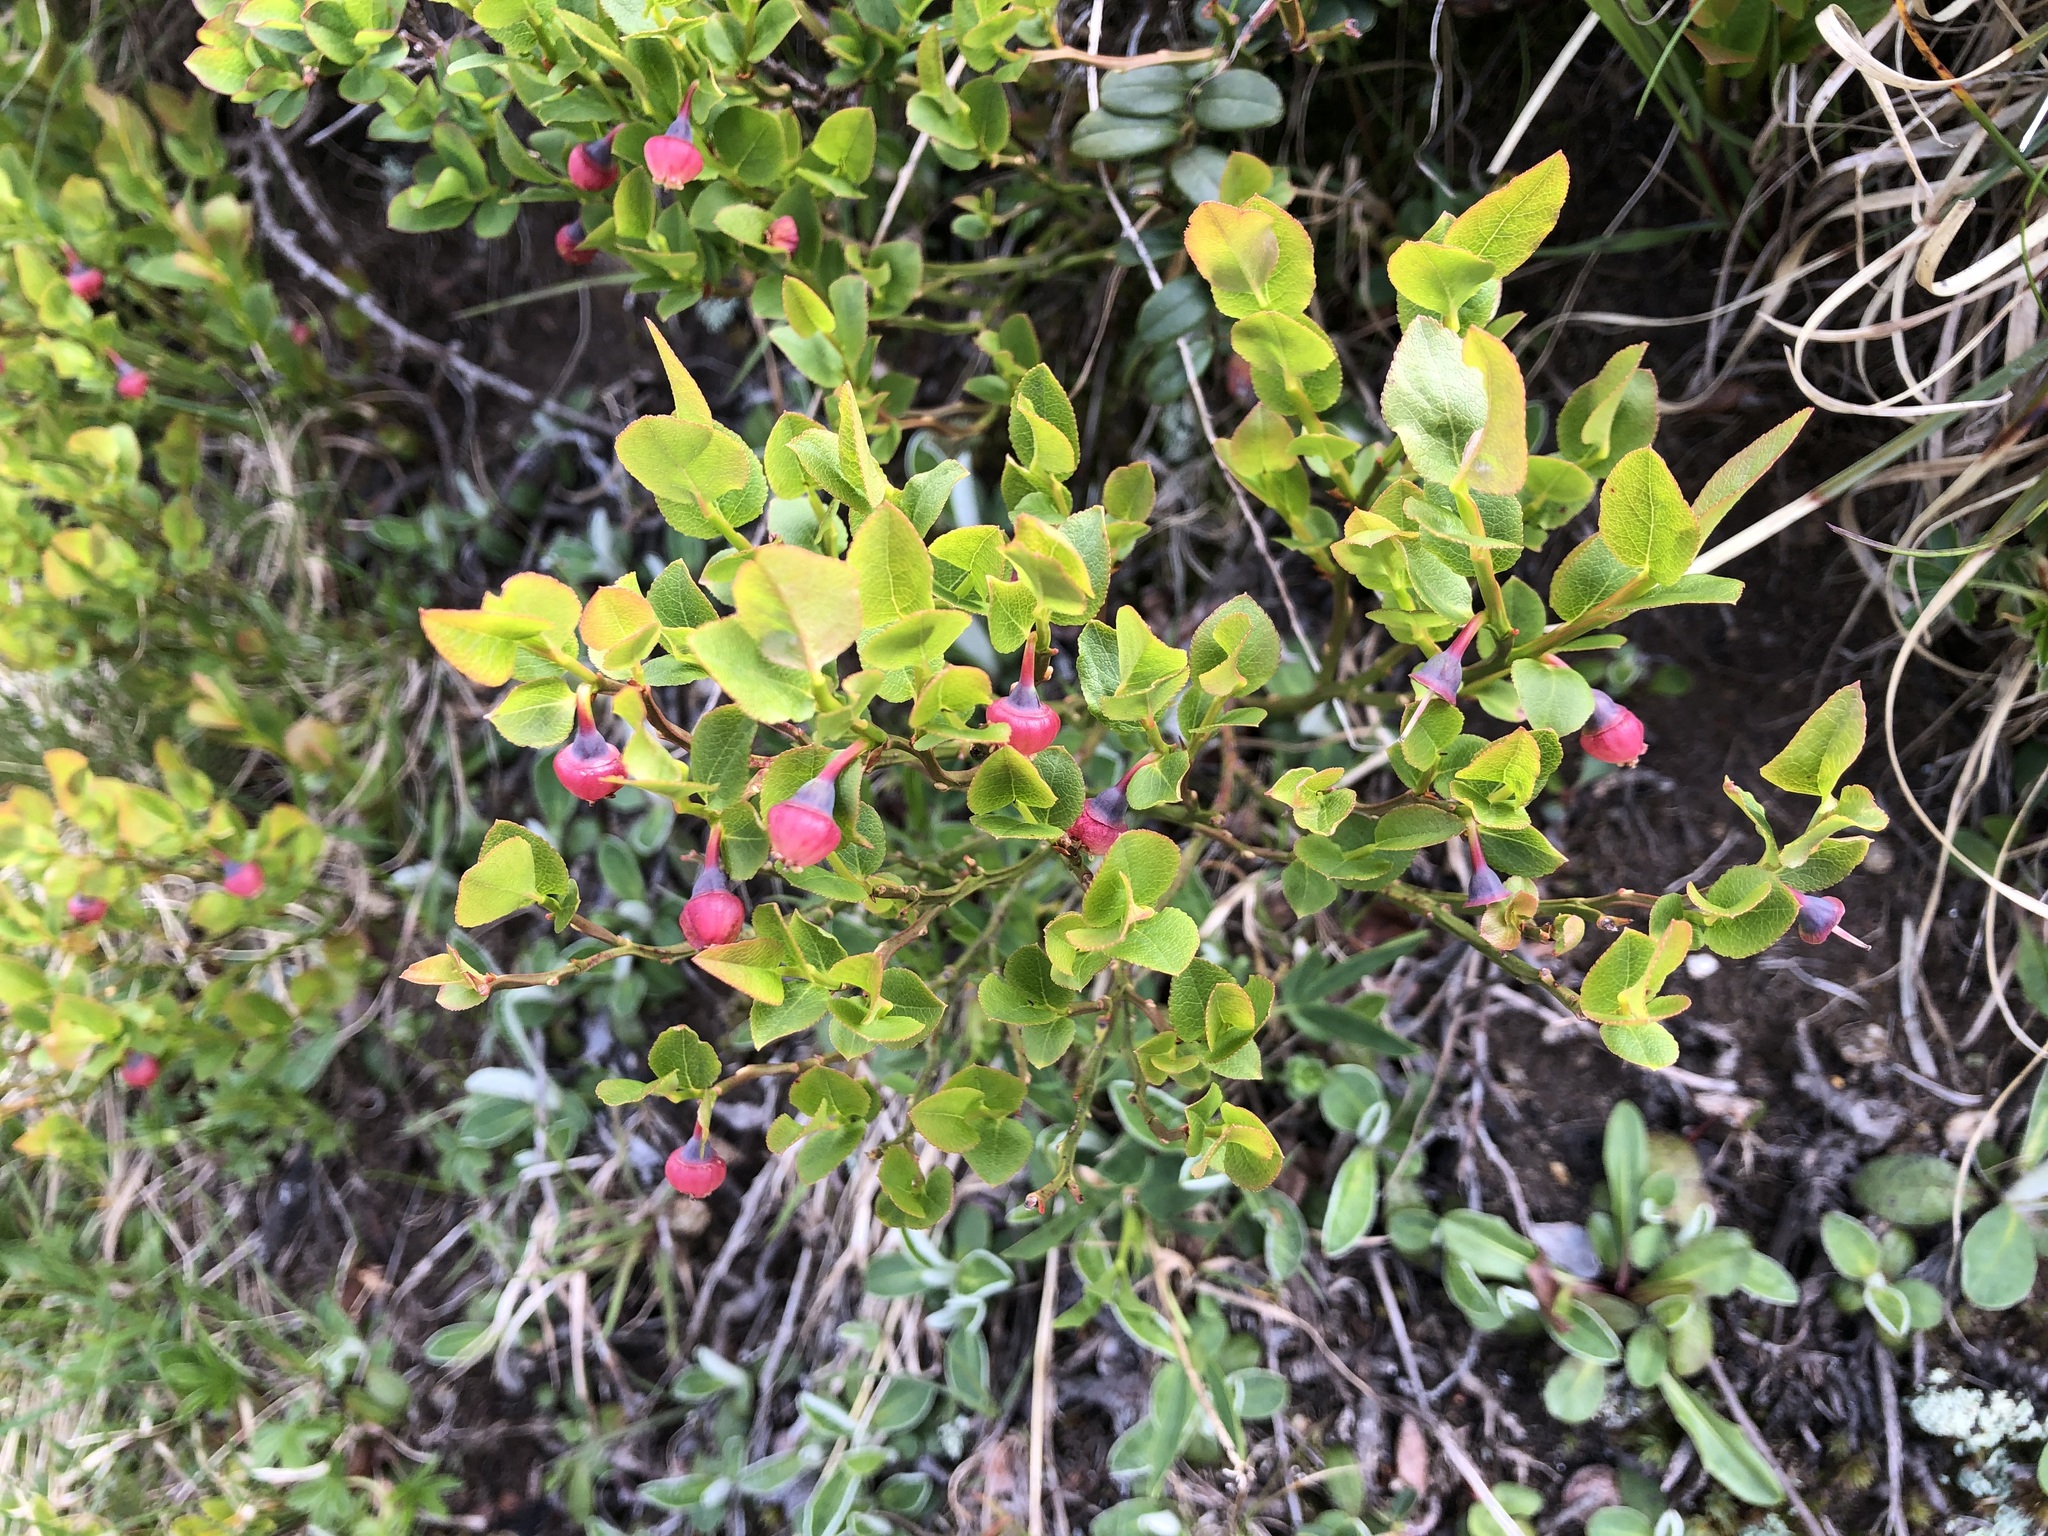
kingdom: Plantae
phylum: Tracheophyta
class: Magnoliopsida
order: Ericales
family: Ericaceae
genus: Vaccinium
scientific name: Vaccinium myrtillus
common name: Bilberry
